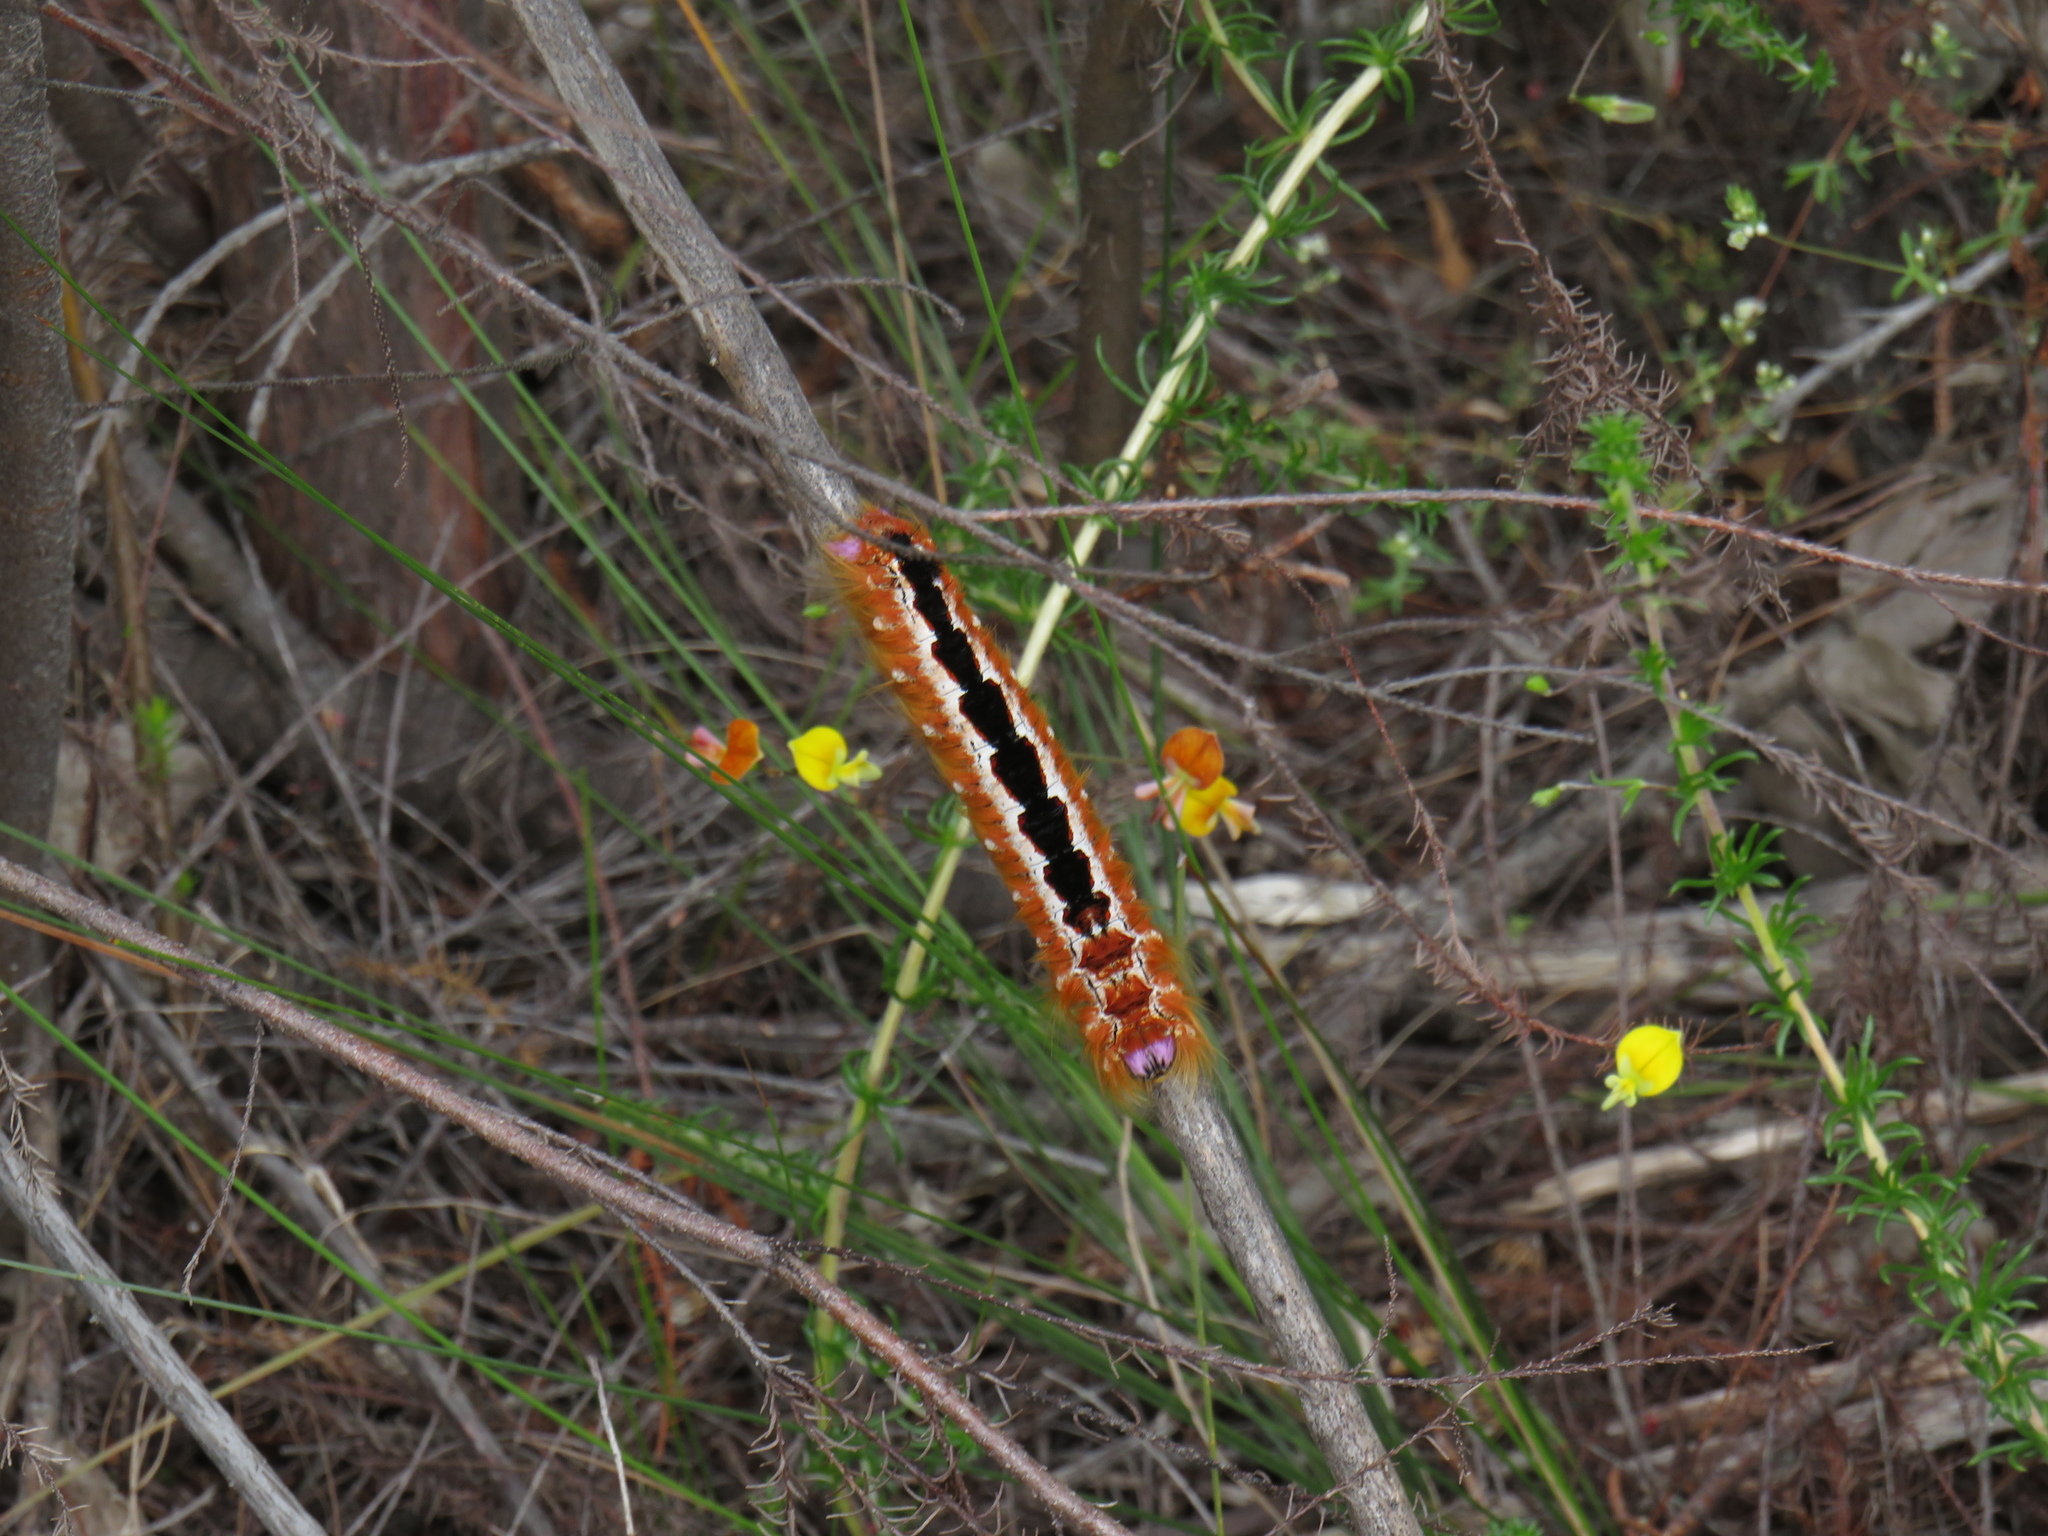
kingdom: Animalia
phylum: Arthropoda
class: Insecta
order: Lepidoptera
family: Lasiocampidae
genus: Eutricha
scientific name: Eutricha capensis
